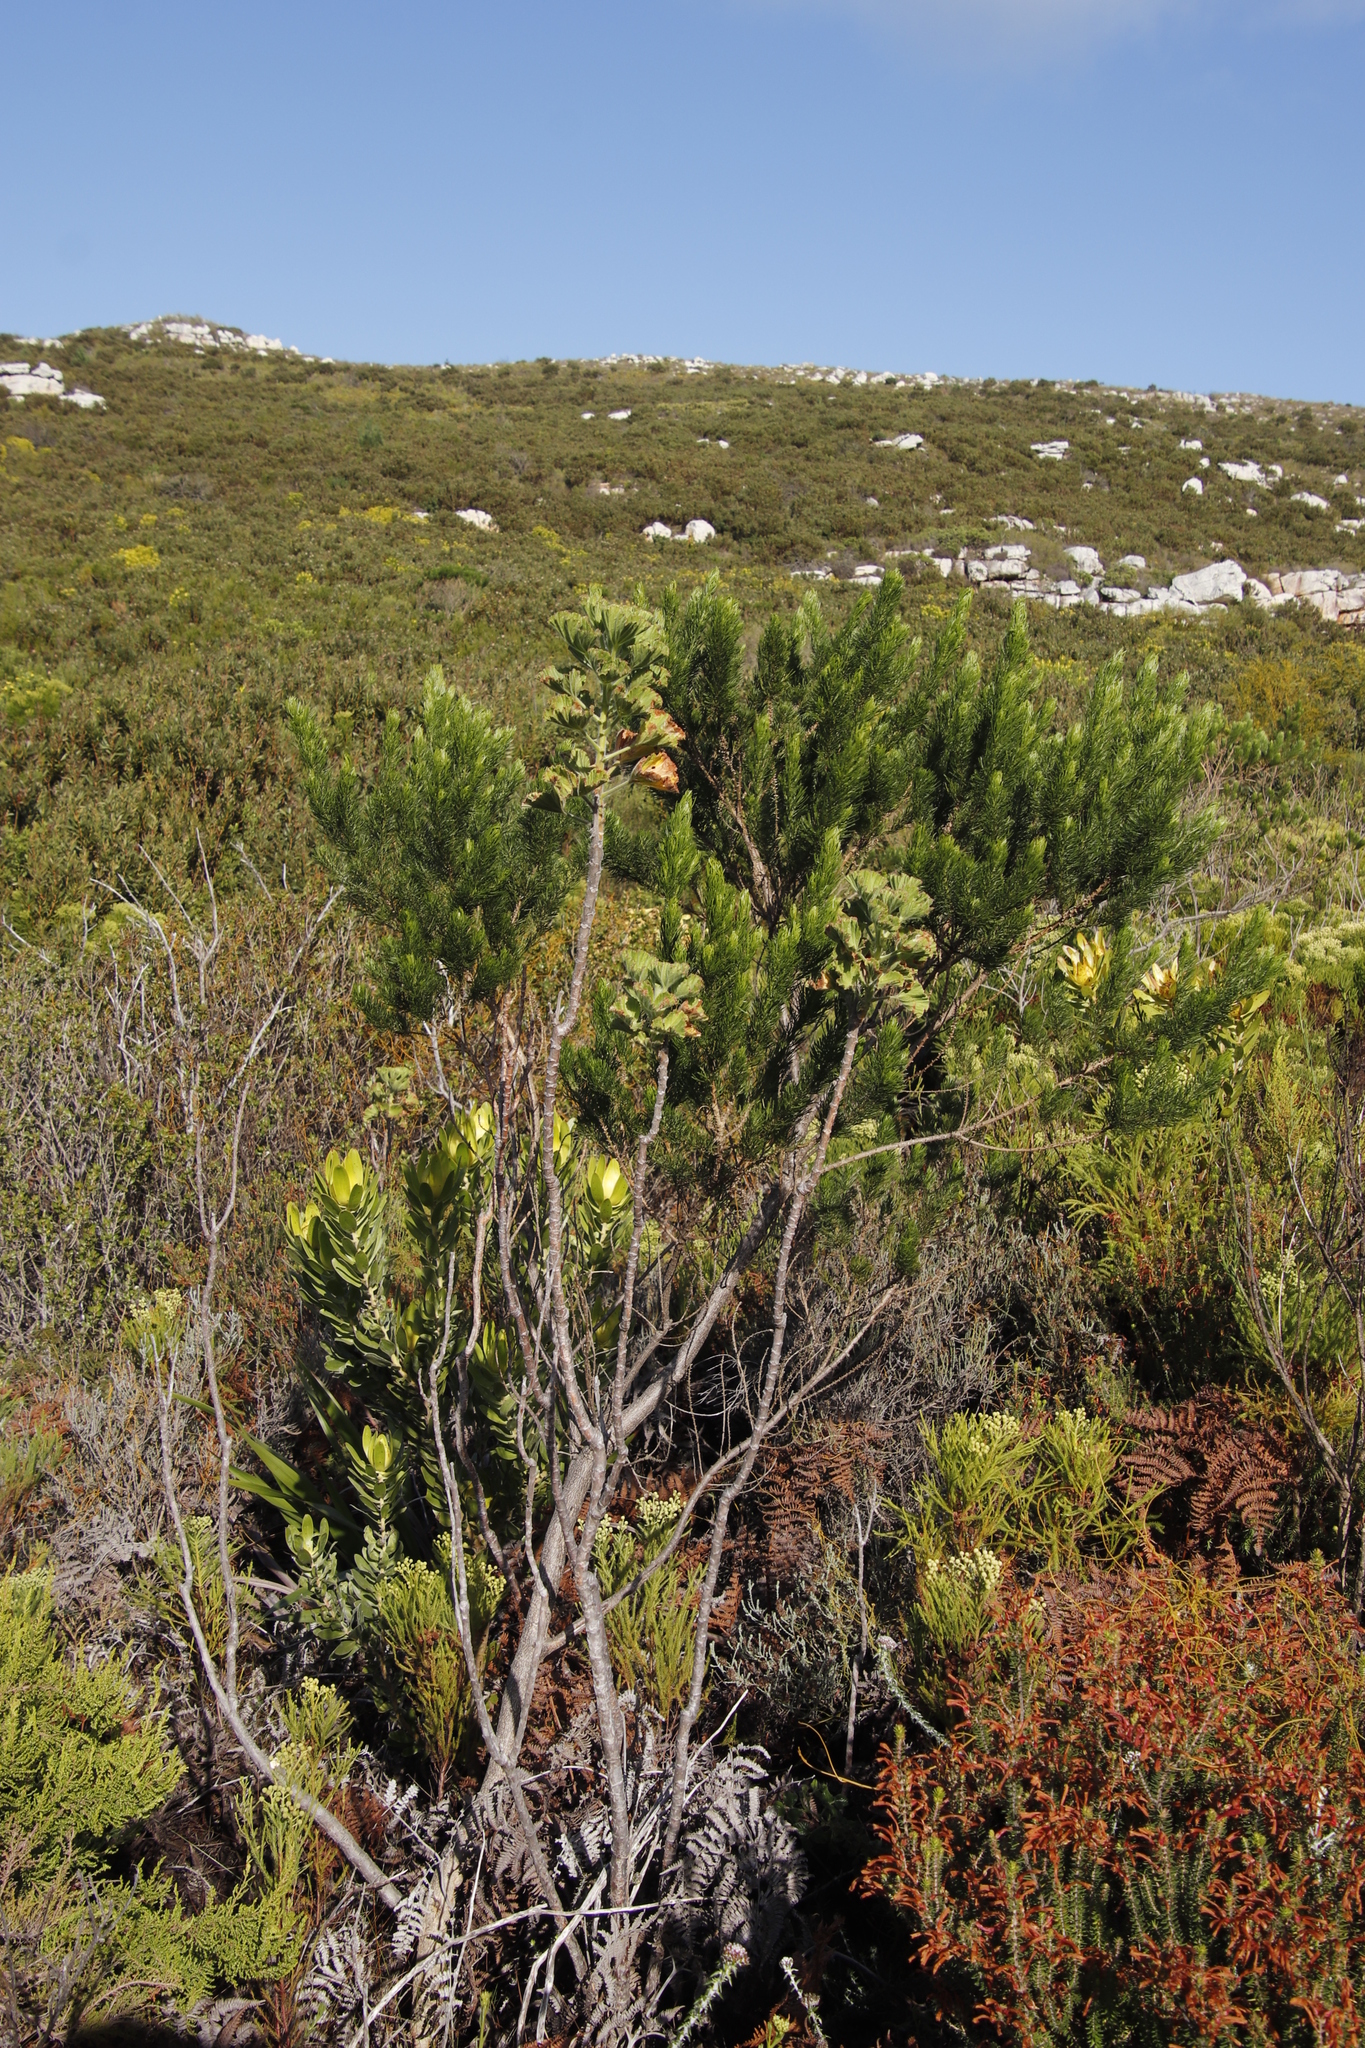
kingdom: Plantae
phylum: Tracheophyta
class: Magnoliopsida
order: Geraniales
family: Geraniaceae
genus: Pelargonium
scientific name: Pelargonium cucullatum
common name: Tree pelargonium
